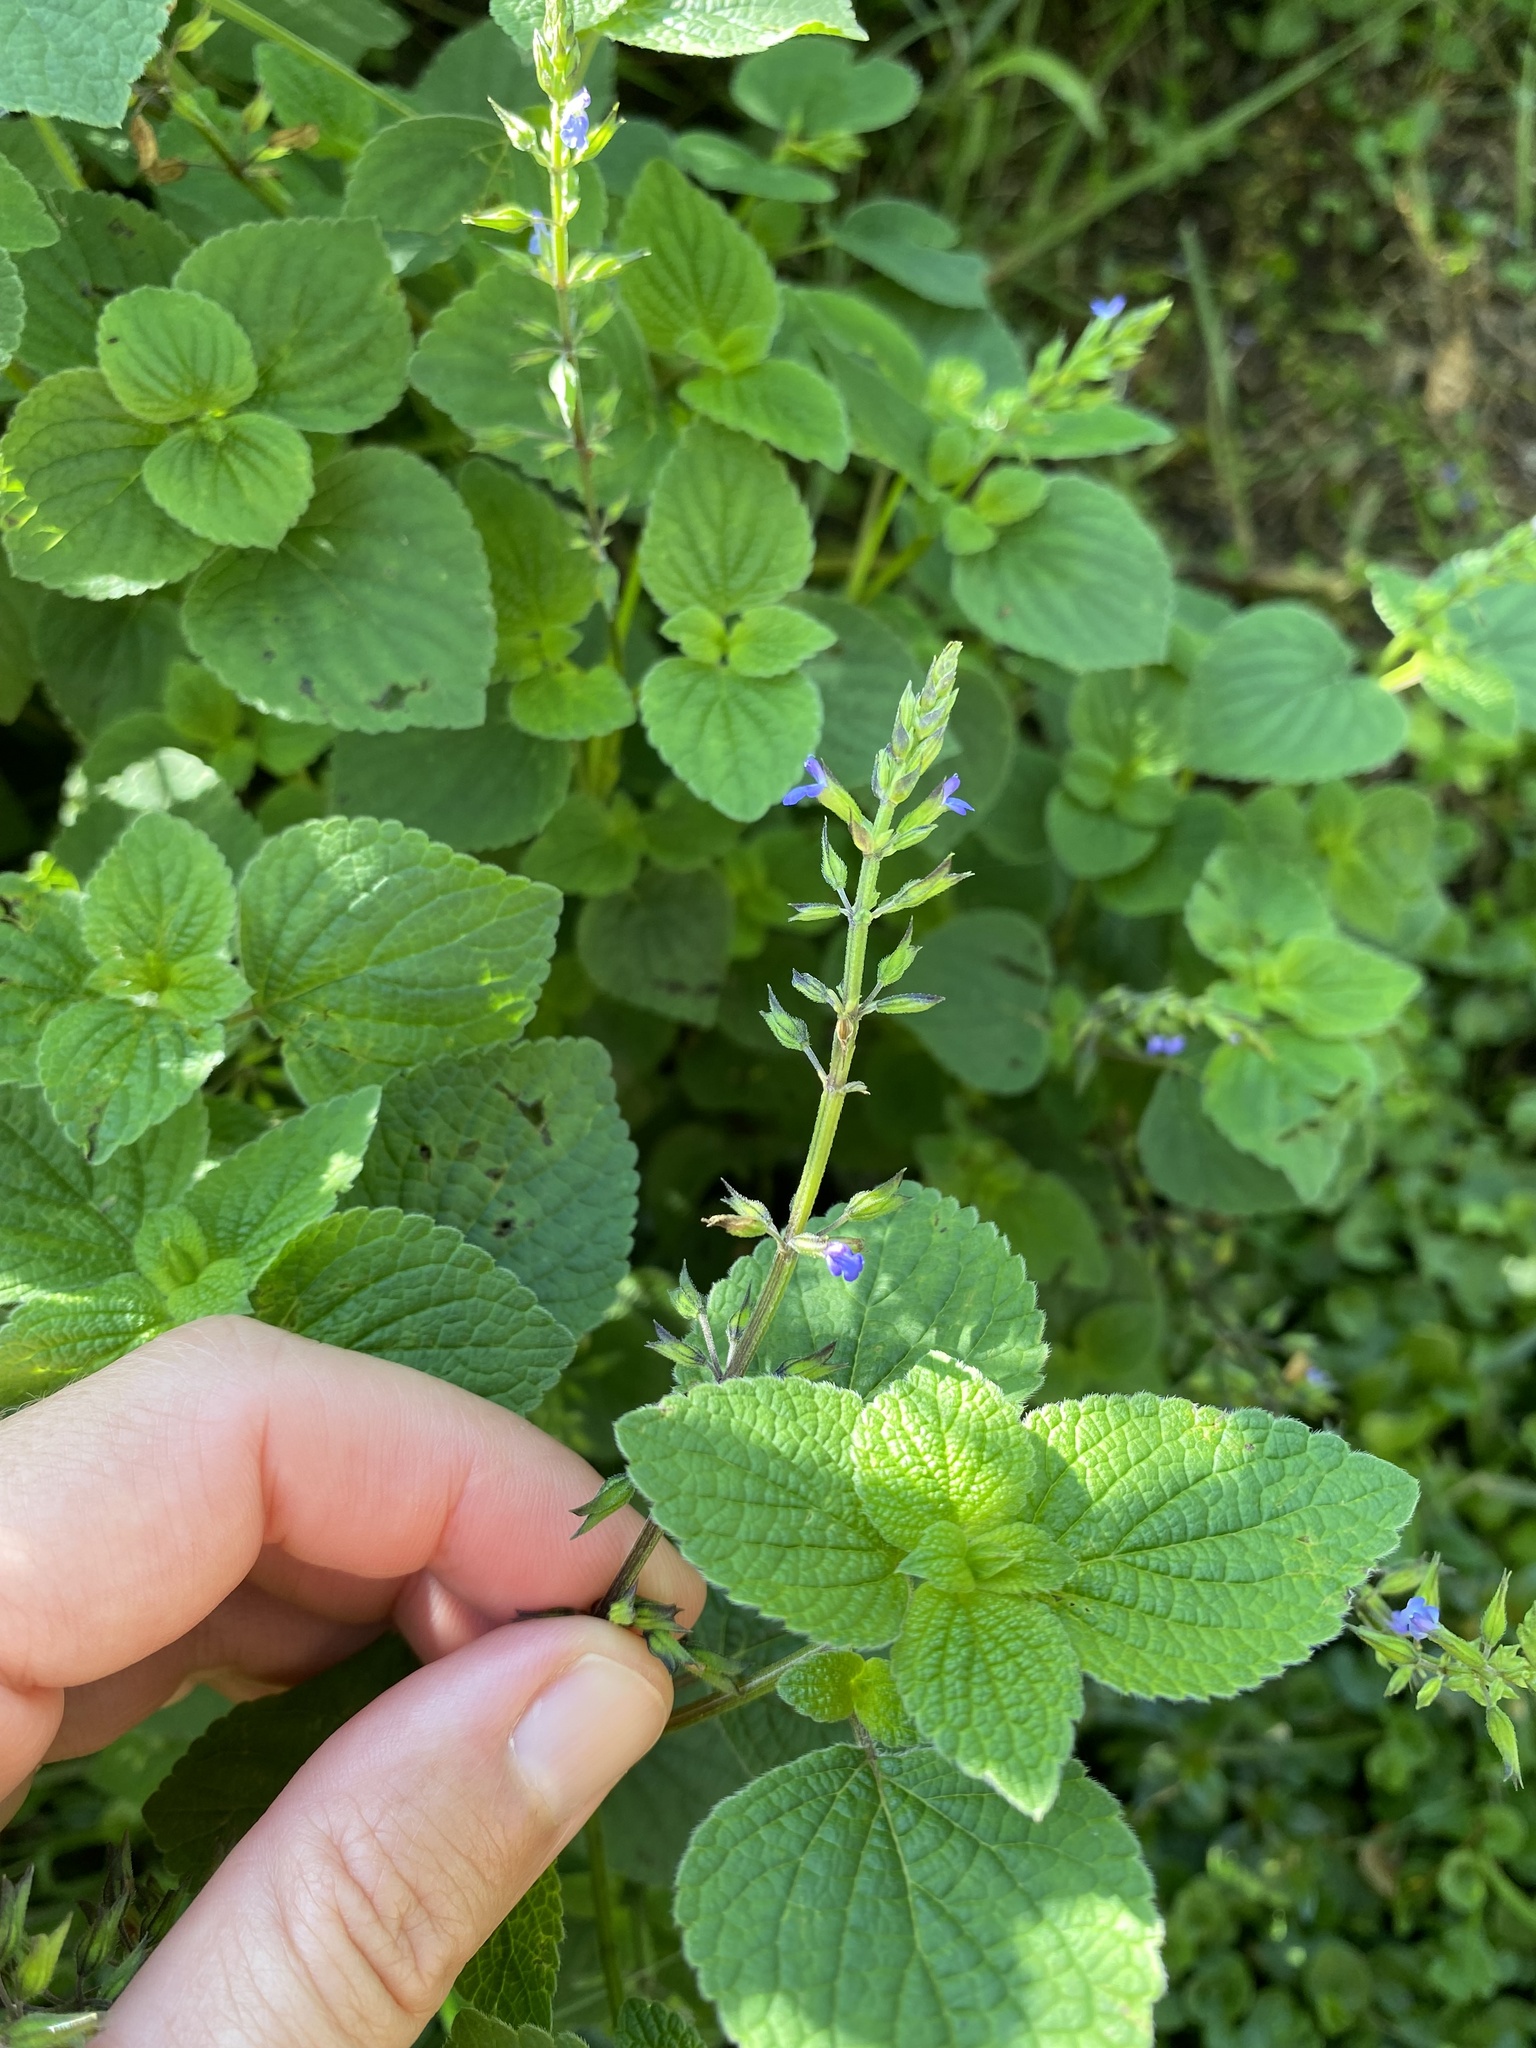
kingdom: Plantae
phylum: Tracheophyta
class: Magnoliopsida
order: Lamiales
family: Lamiaceae
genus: Salvia
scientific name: Salvia tiliifolia
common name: Lindenleaf sage
